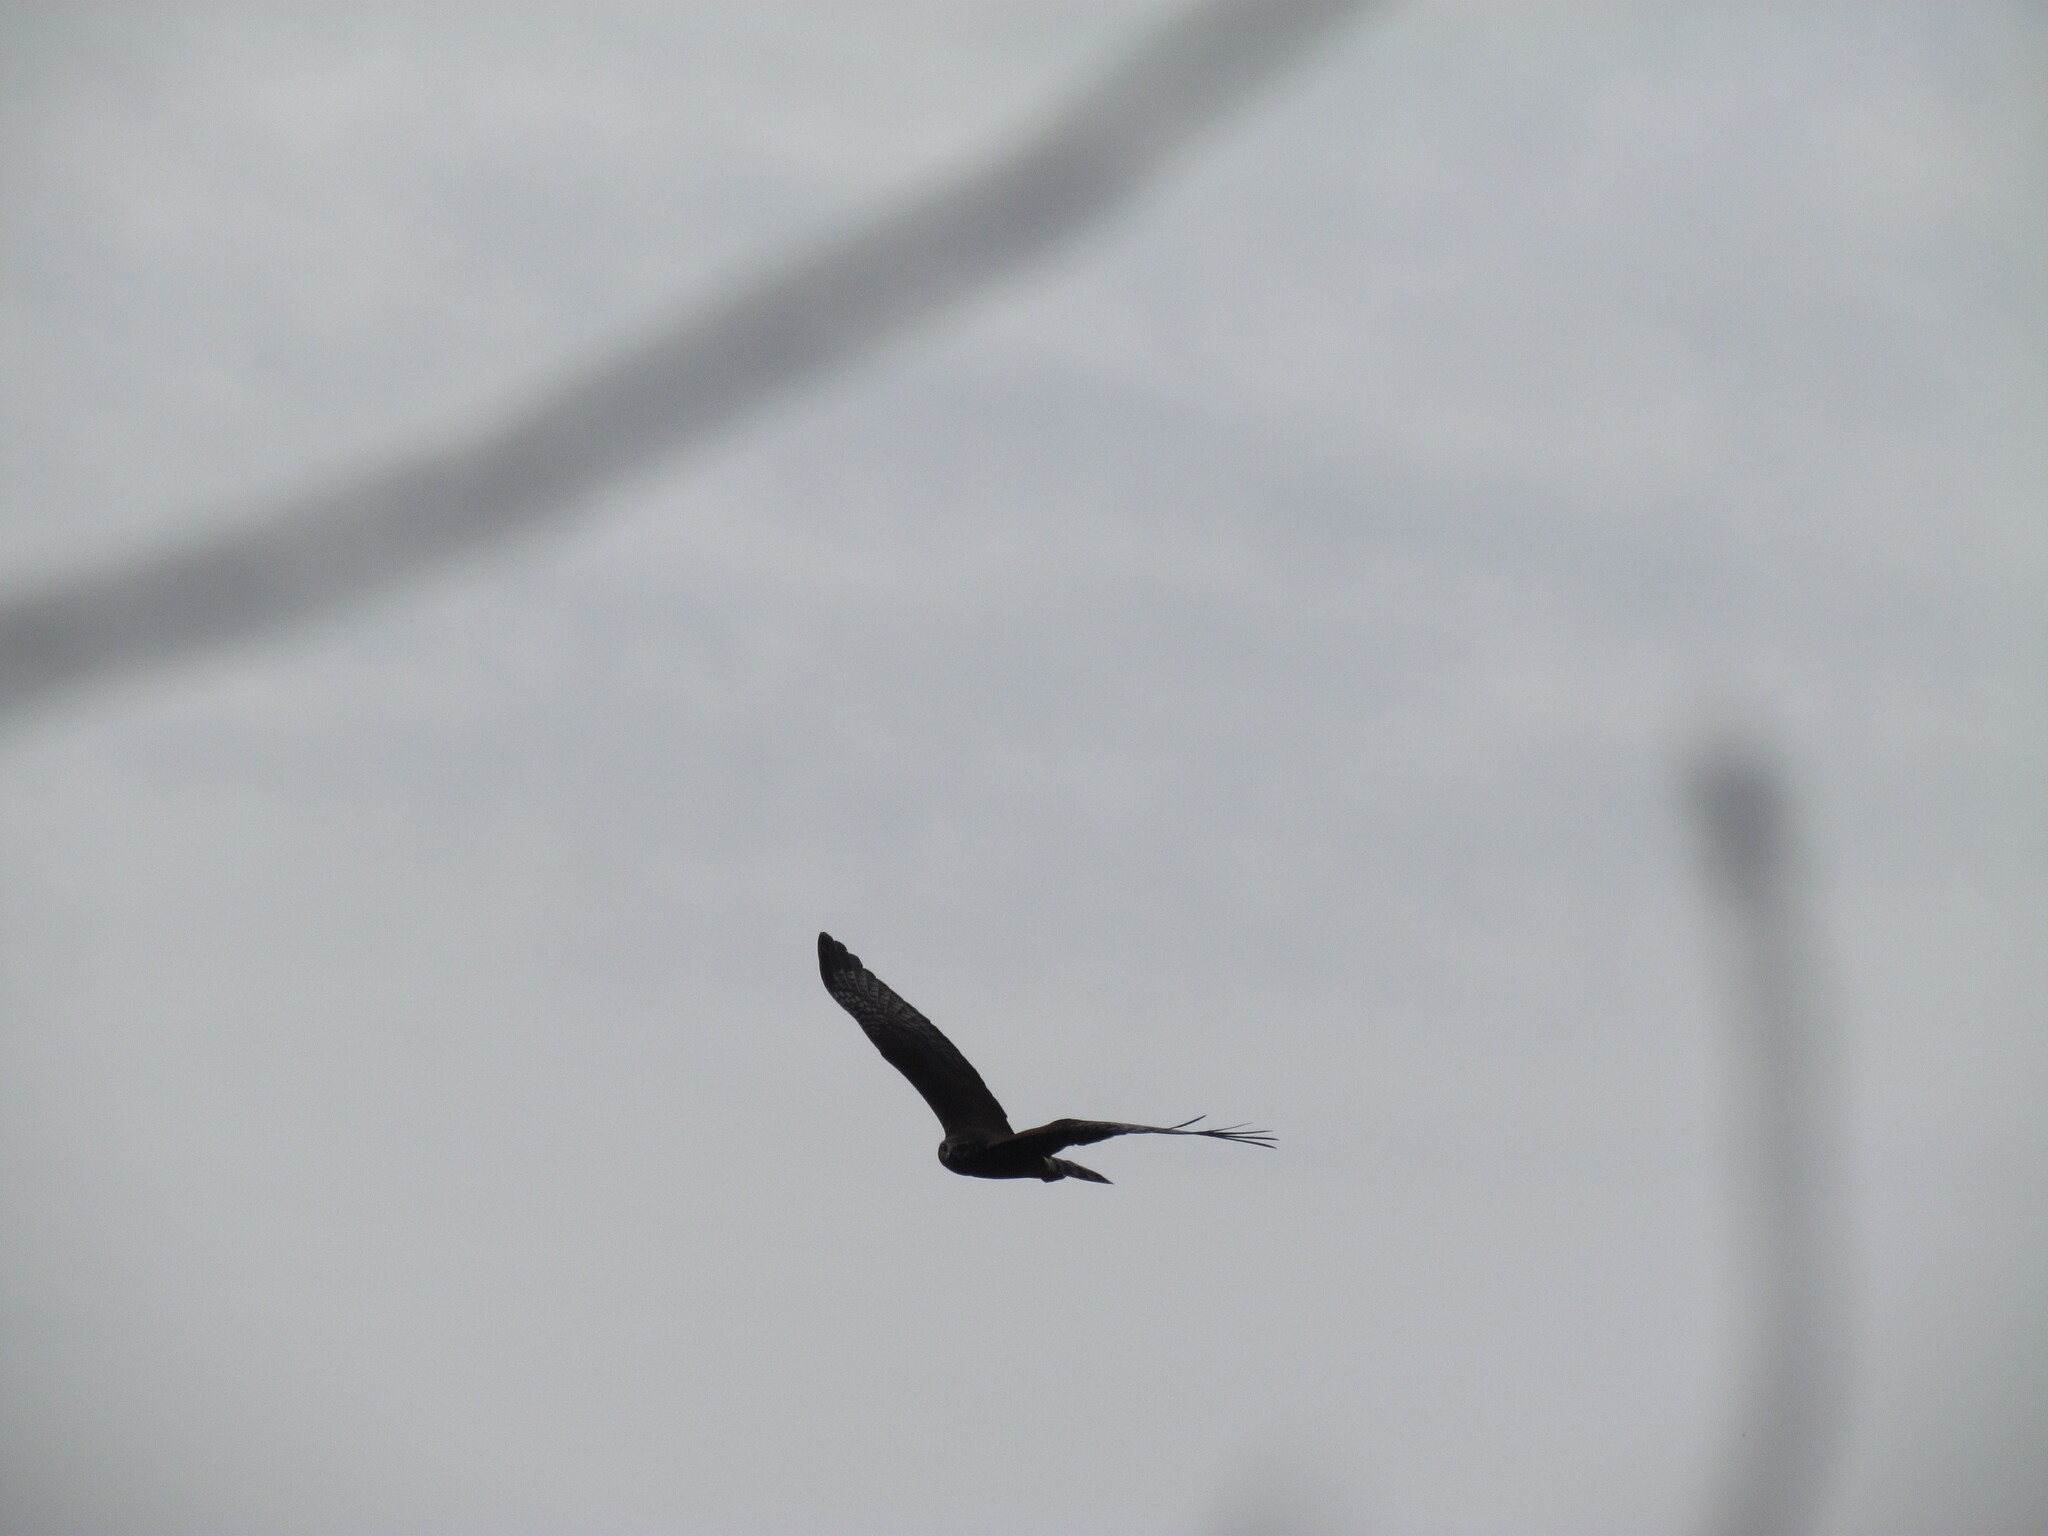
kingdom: Animalia
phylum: Chordata
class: Aves
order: Accipitriformes
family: Accipitridae
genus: Circus
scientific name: Circus buffoni
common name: Long-winged harrier
